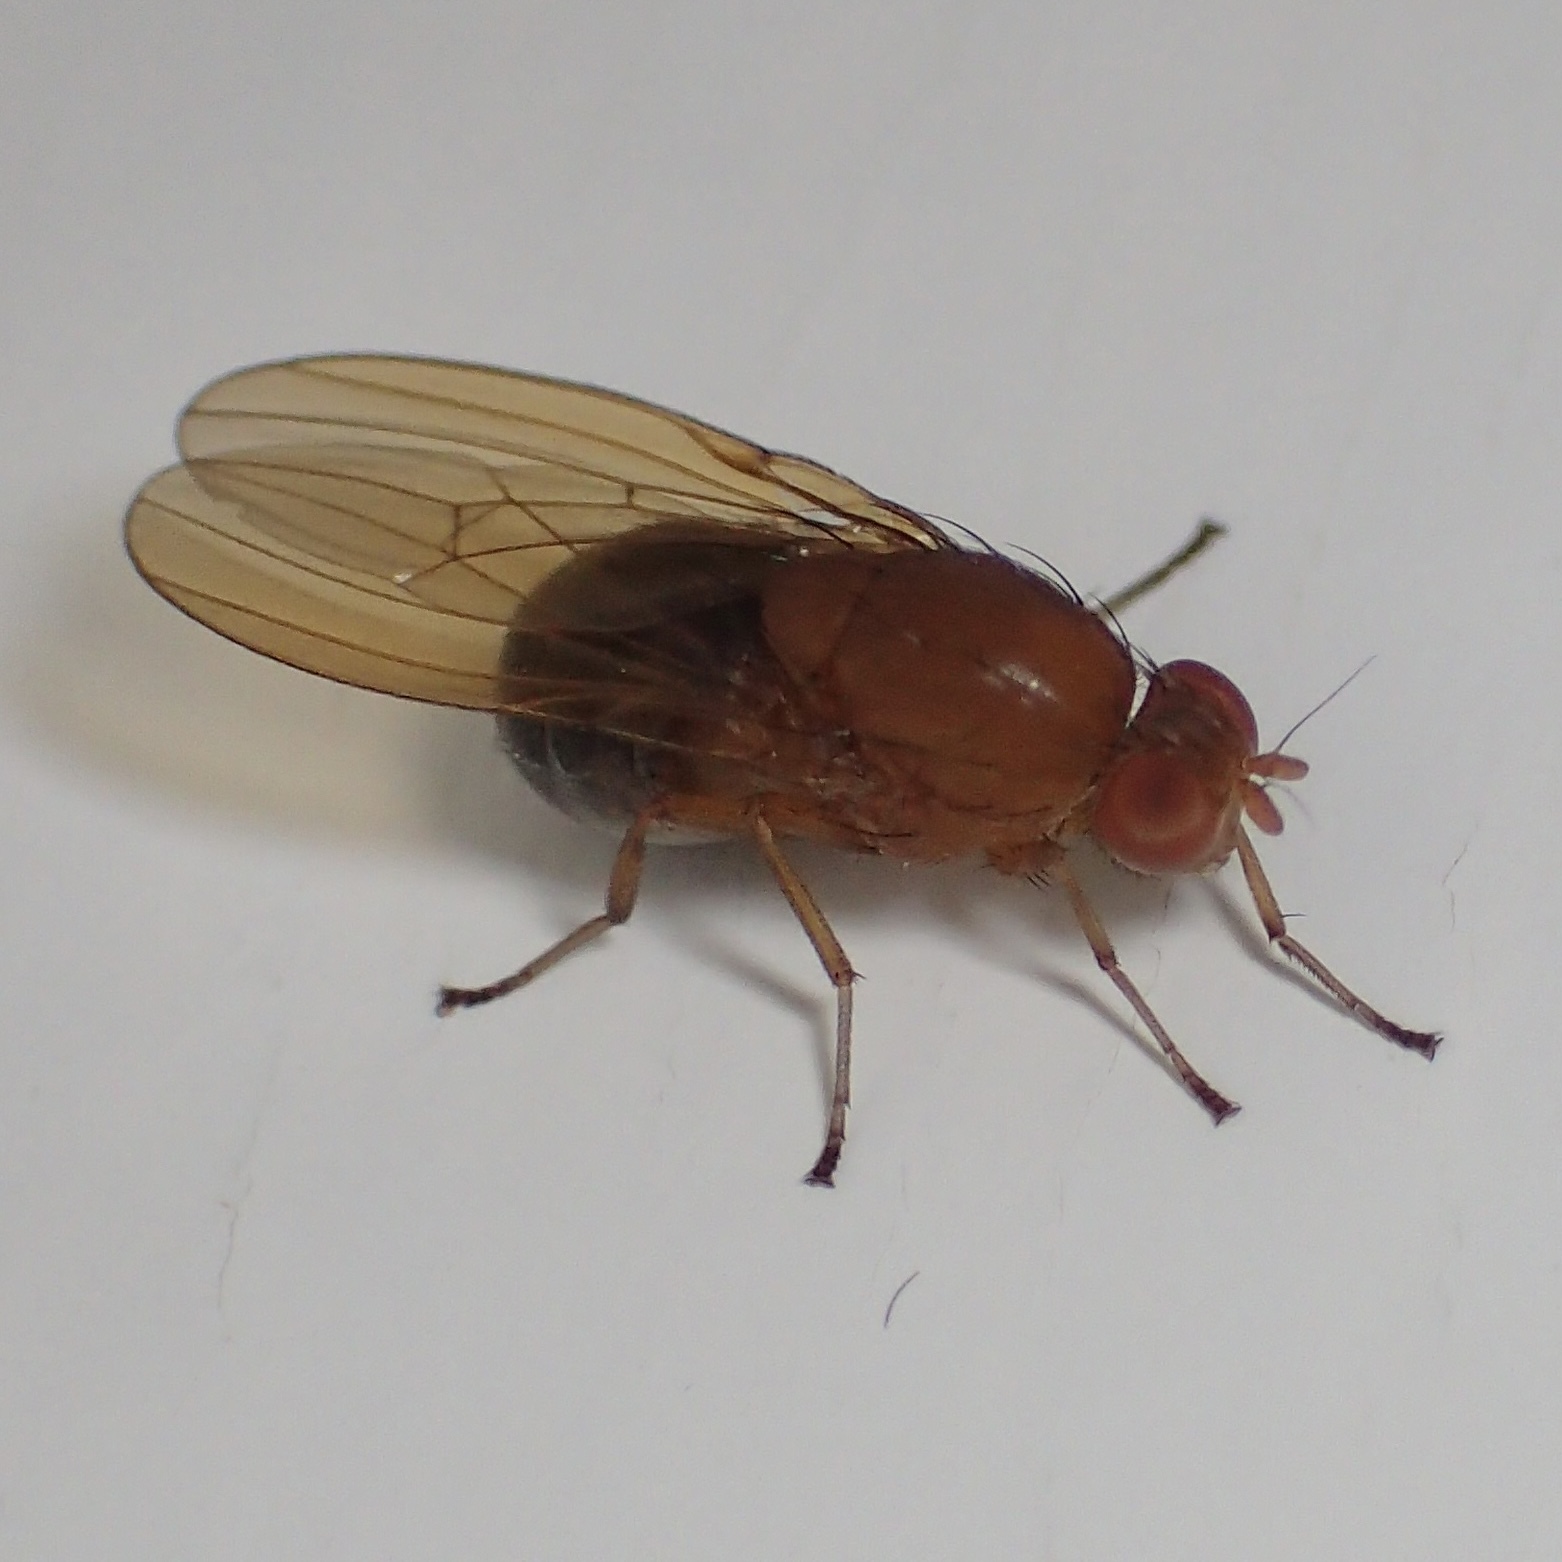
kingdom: Animalia
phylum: Arthropoda
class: Insecta
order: Diptera
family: Lauxaniidae
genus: Sapromyza
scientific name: Sapromyza simillima
